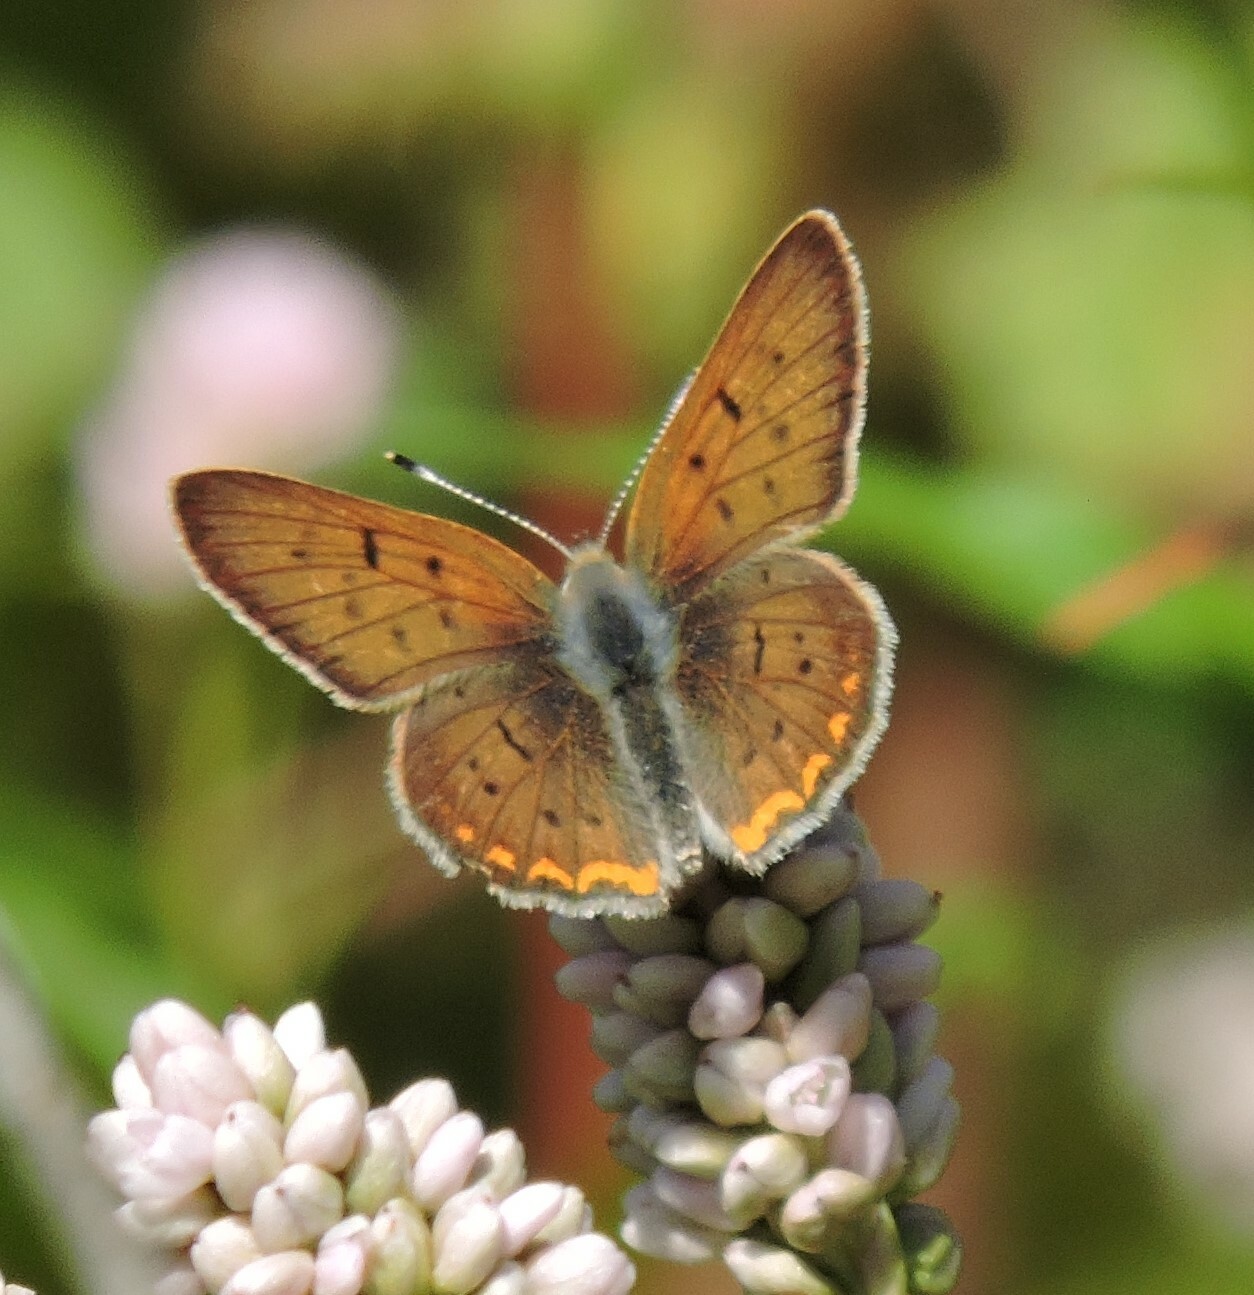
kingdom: Animalia
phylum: Arthropoda
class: Insecta
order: Lepidoptera
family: Lycaenidae
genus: Tharsalea
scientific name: Tharsalea helloides
